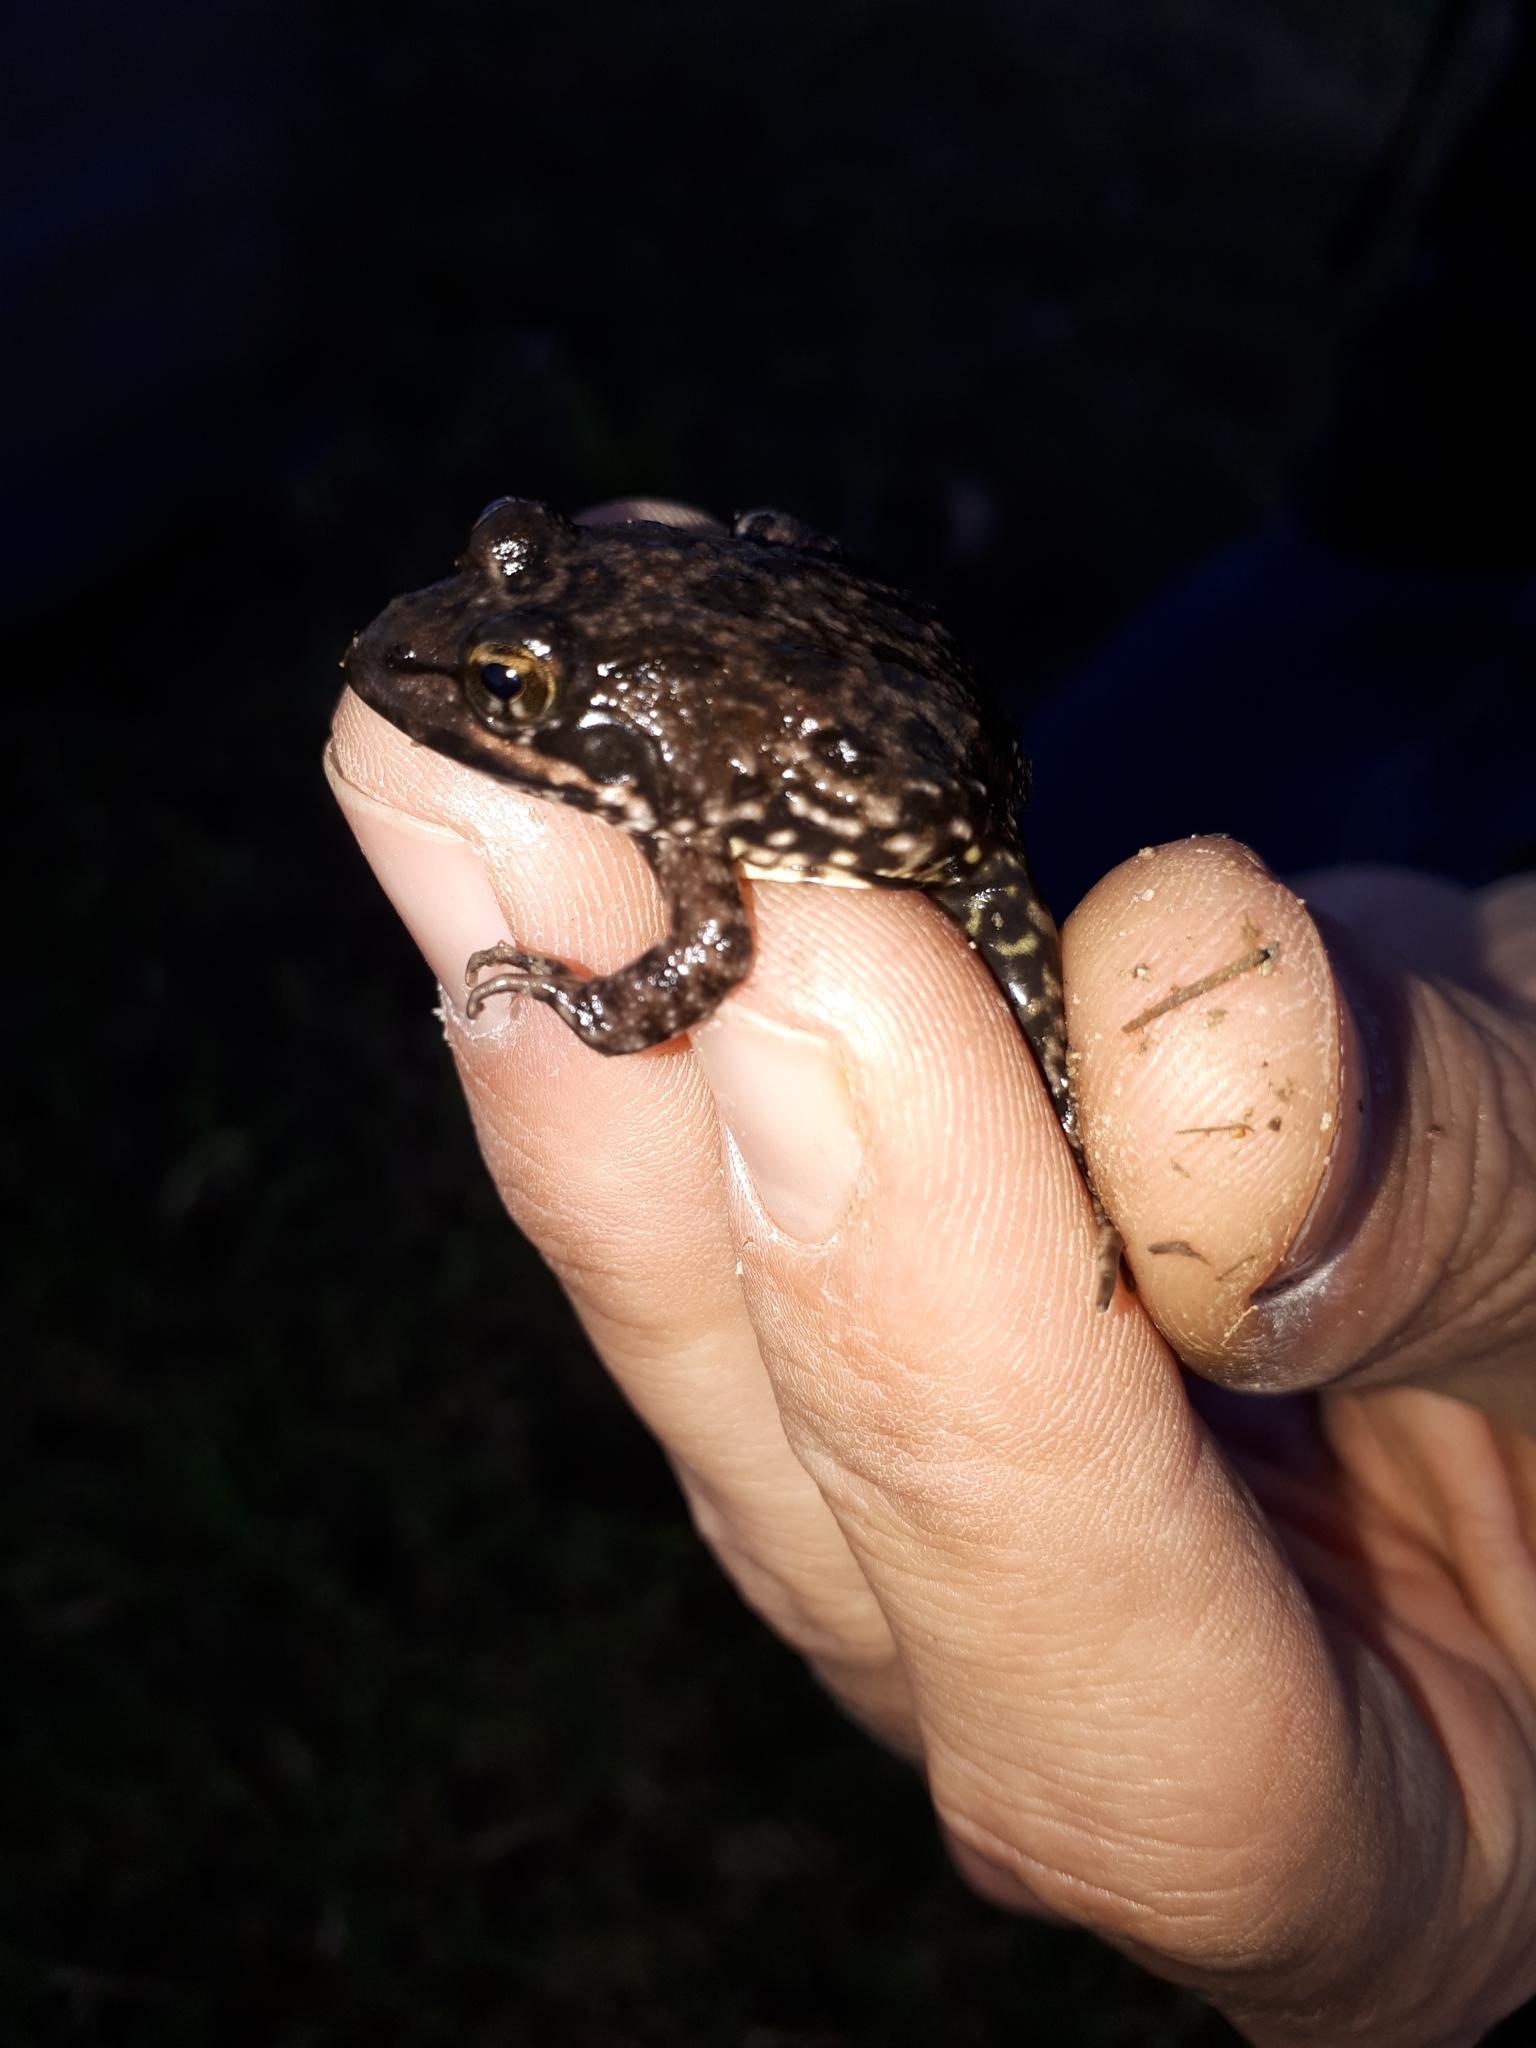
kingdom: Animalia
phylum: Chordata
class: Amphibia
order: Anura
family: Pyxicephalidae
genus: Amietia
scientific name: Amietia fuscigula
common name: Cape rana
